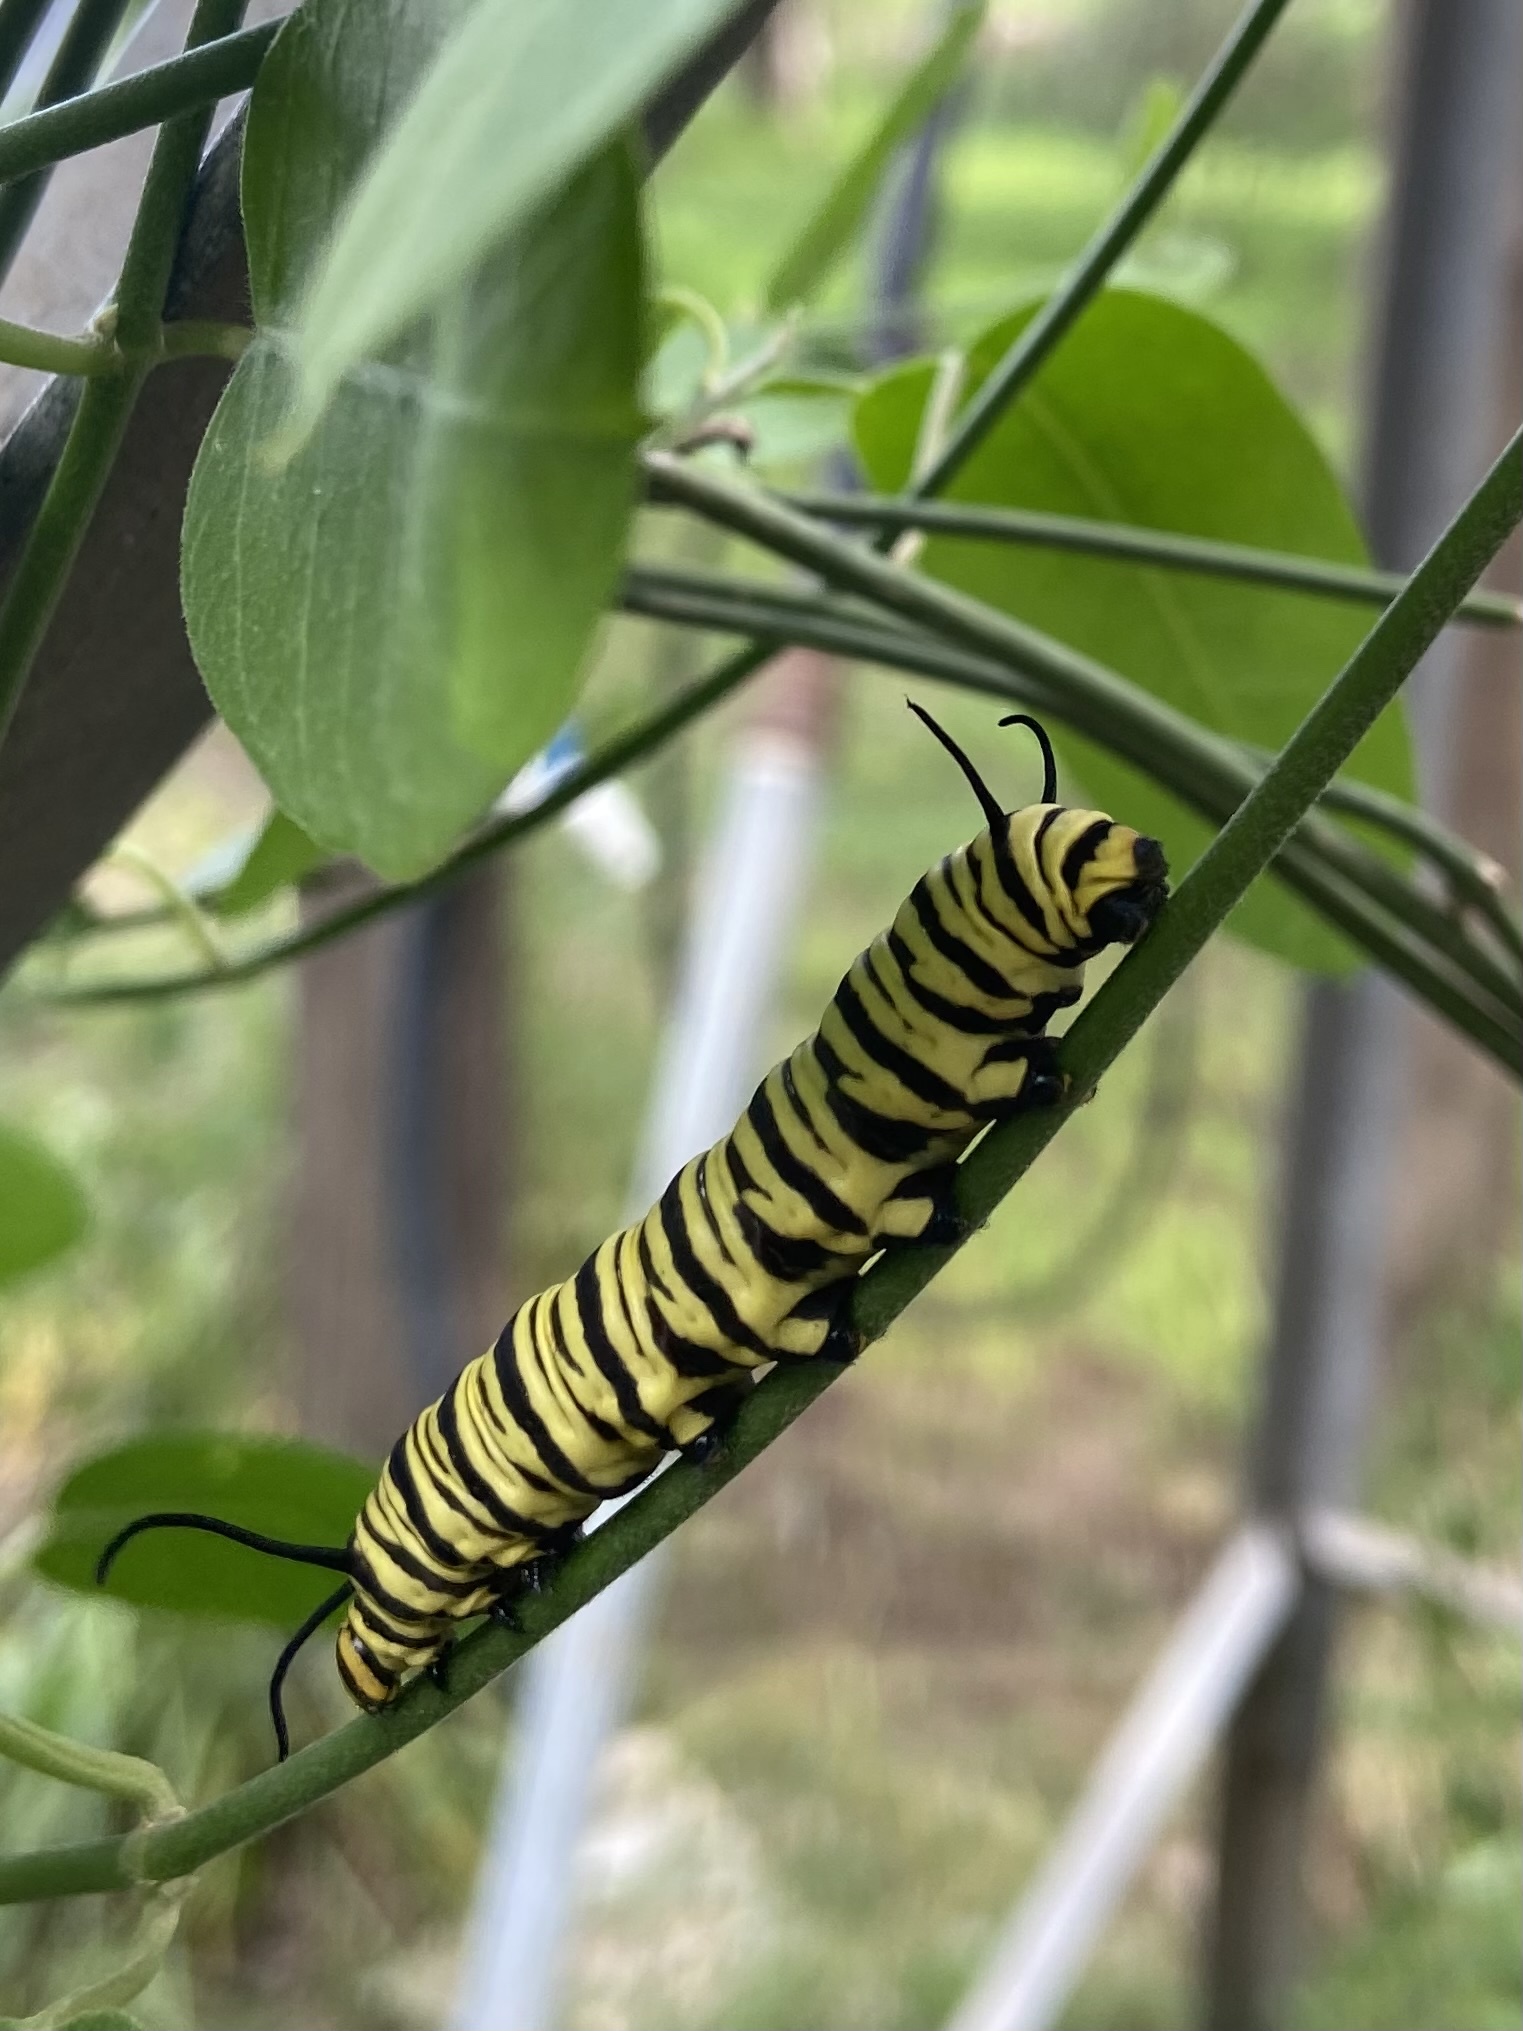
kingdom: Animalia
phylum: Arthropoda
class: Insecta
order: Lepidoptera
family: Nymphalidae
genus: Danaus
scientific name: Danaus erippus
